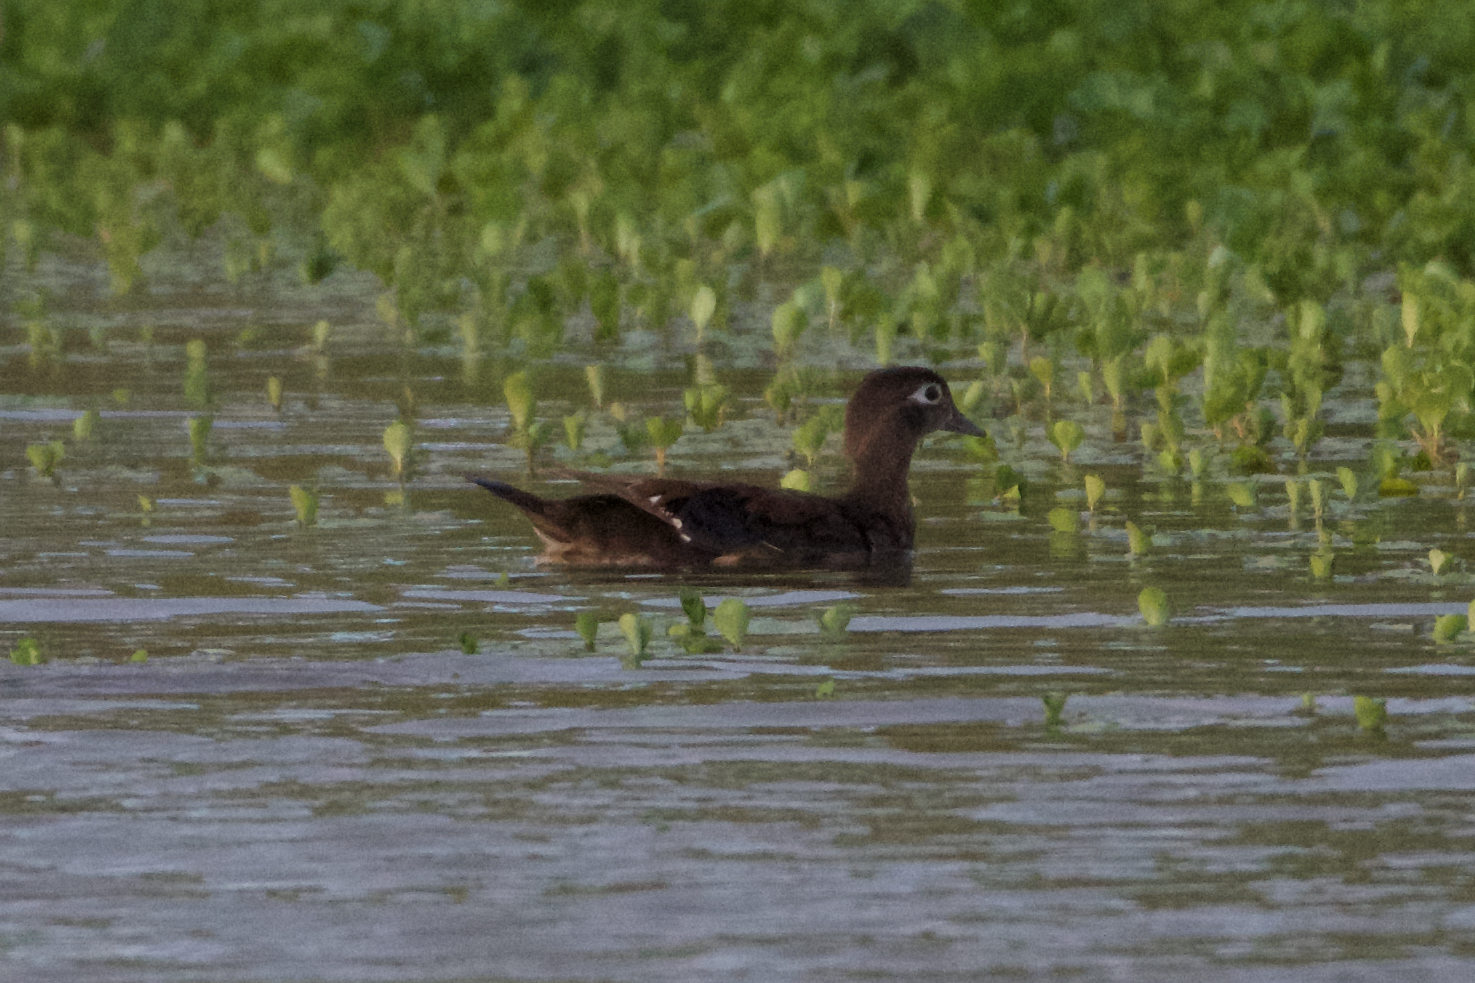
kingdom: Animalia
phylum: Chordata
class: Aves
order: Anseriformes
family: Anatidae
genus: Aix
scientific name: Aix sponsa
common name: Wood duck
